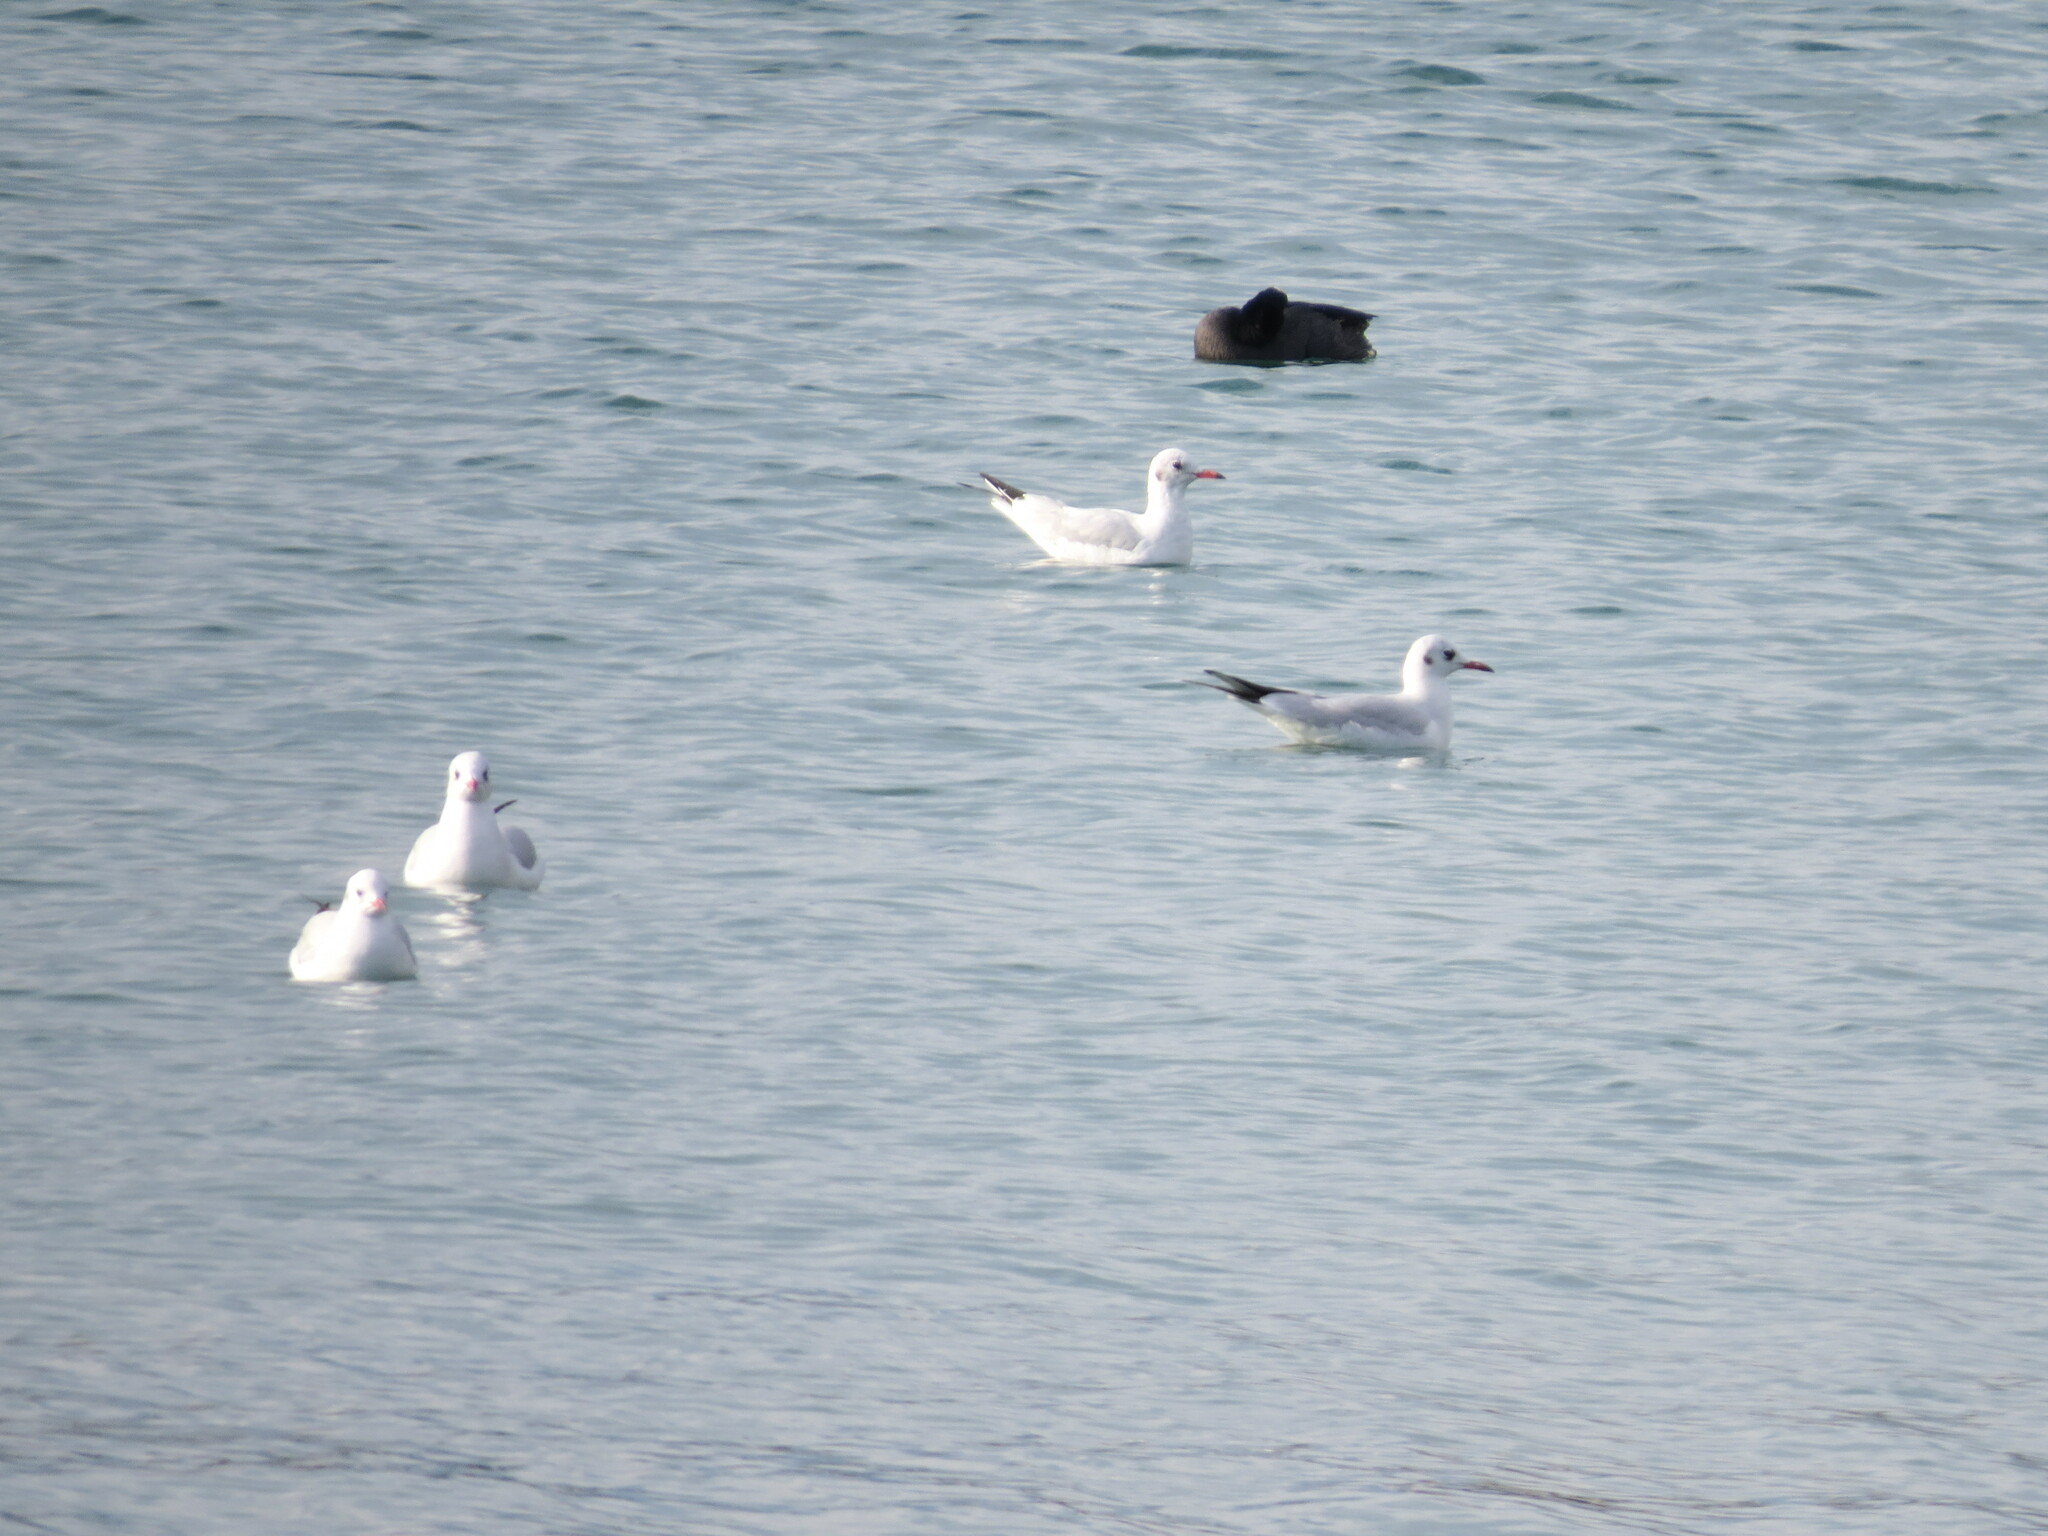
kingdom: Animalia
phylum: Chordata
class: Aves
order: Charadriiformes
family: Laridae
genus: Chroicocephalus
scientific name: Chroicocephalus ridibundus
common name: Black-headed gull
